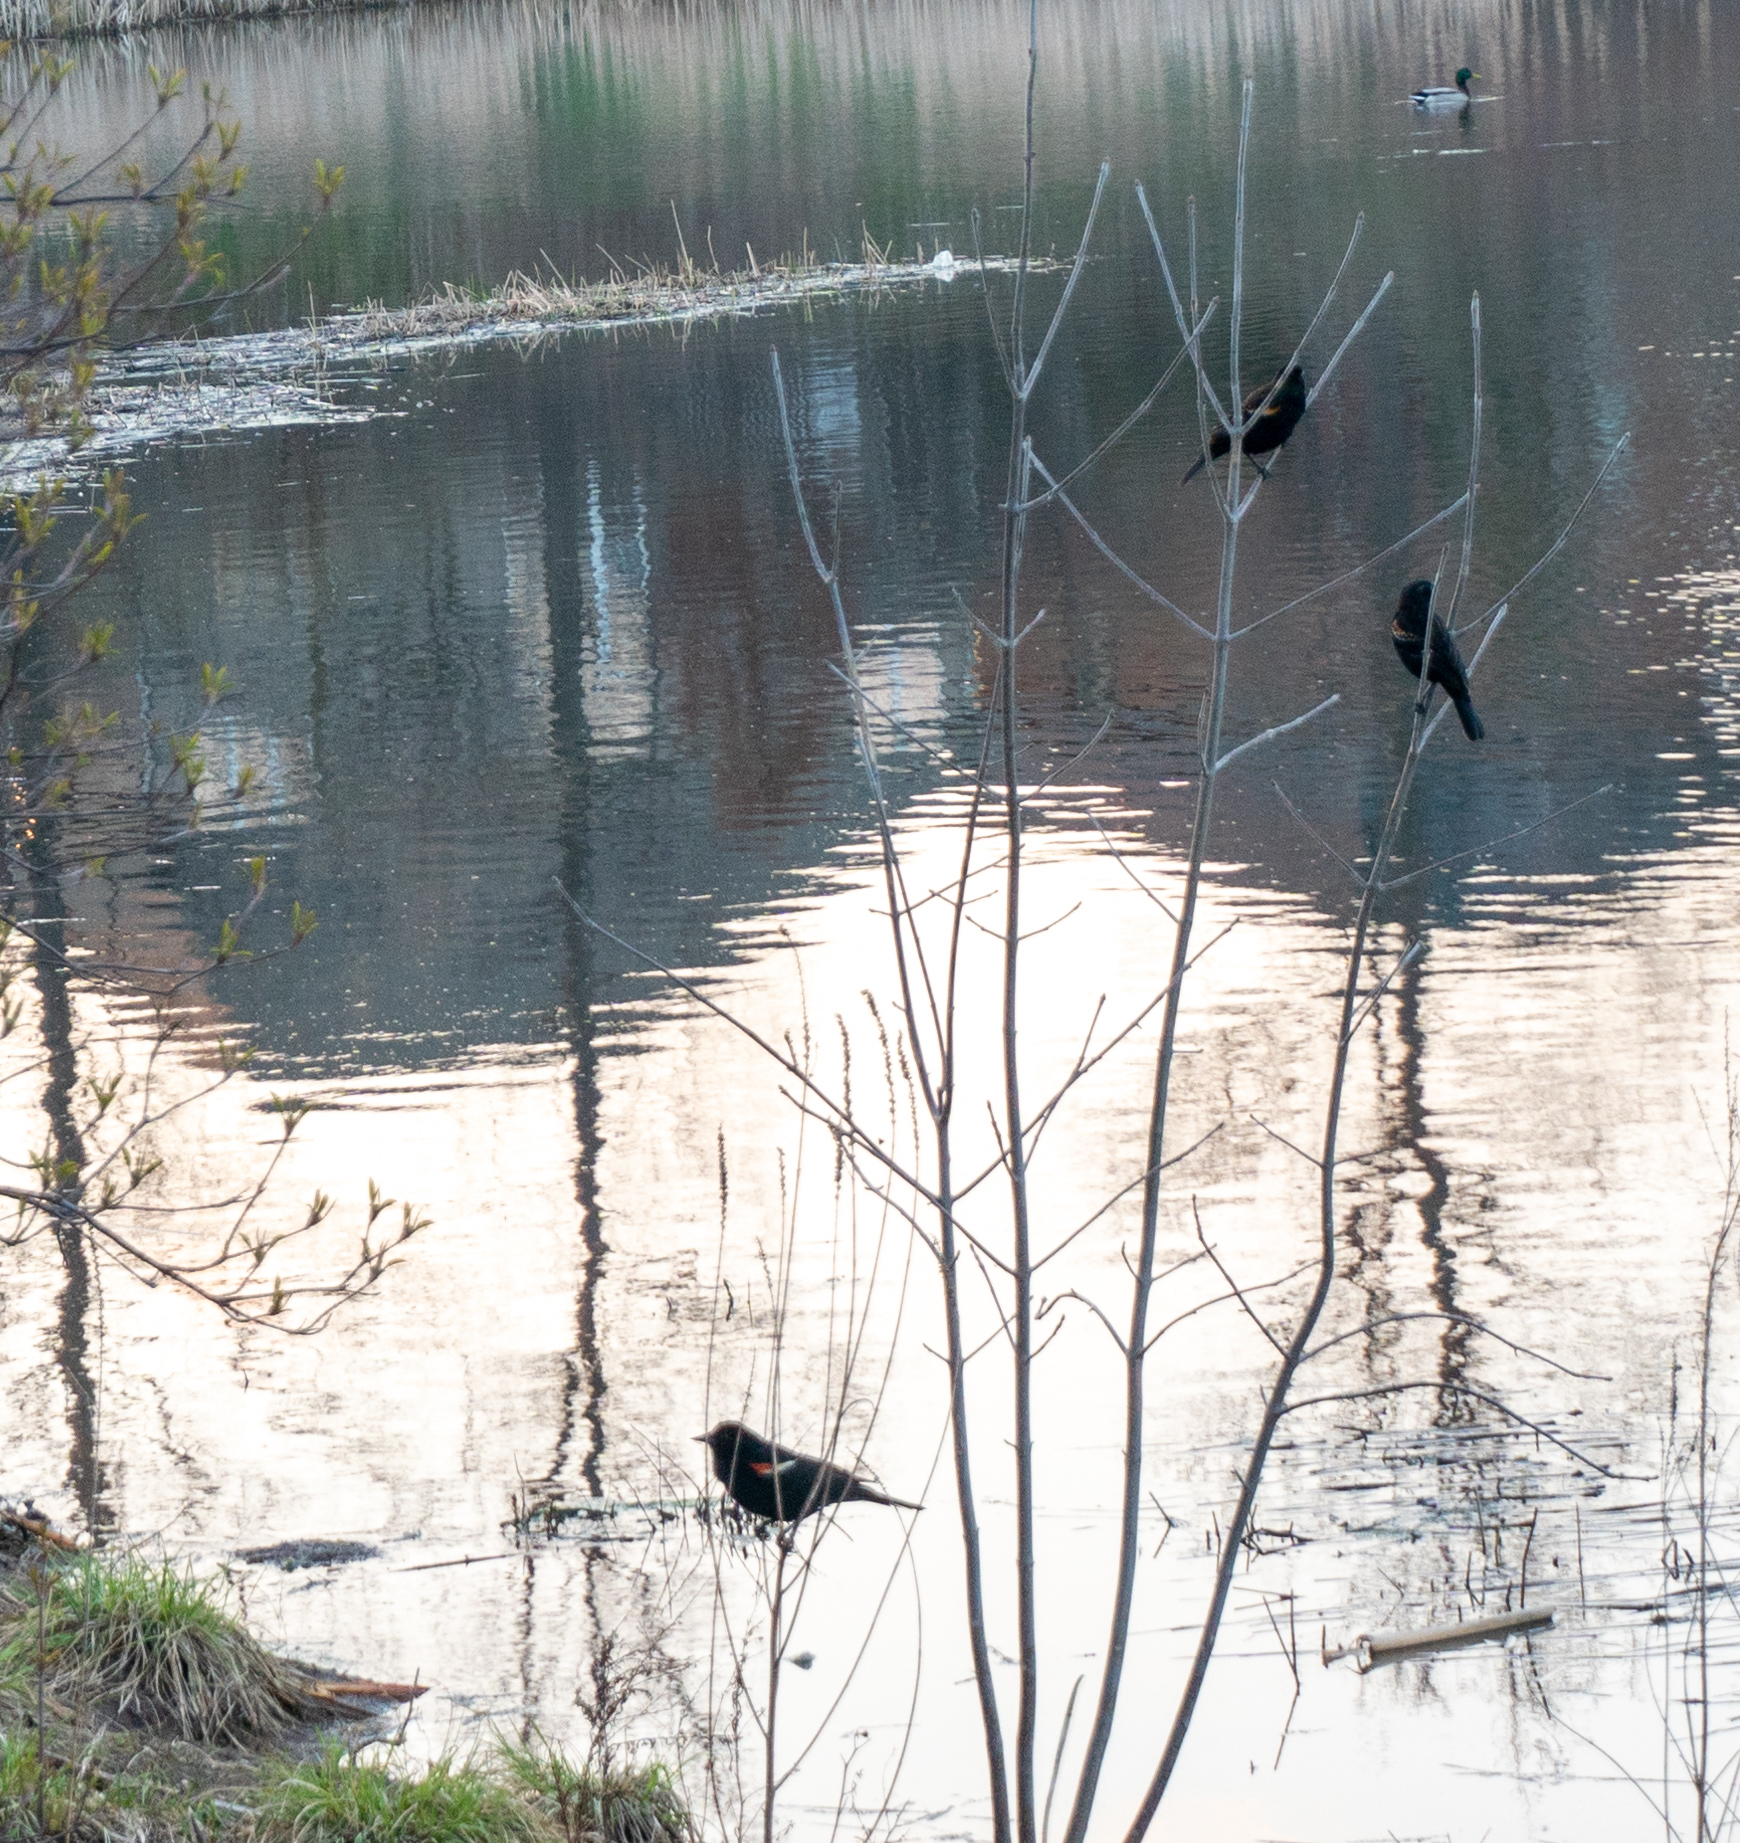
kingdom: Animalia
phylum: Chordata
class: Aves
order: Passeriformes
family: Icteridae
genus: Agelaius
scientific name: Agelaius phoeniceus
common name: Red-winged blackbird
